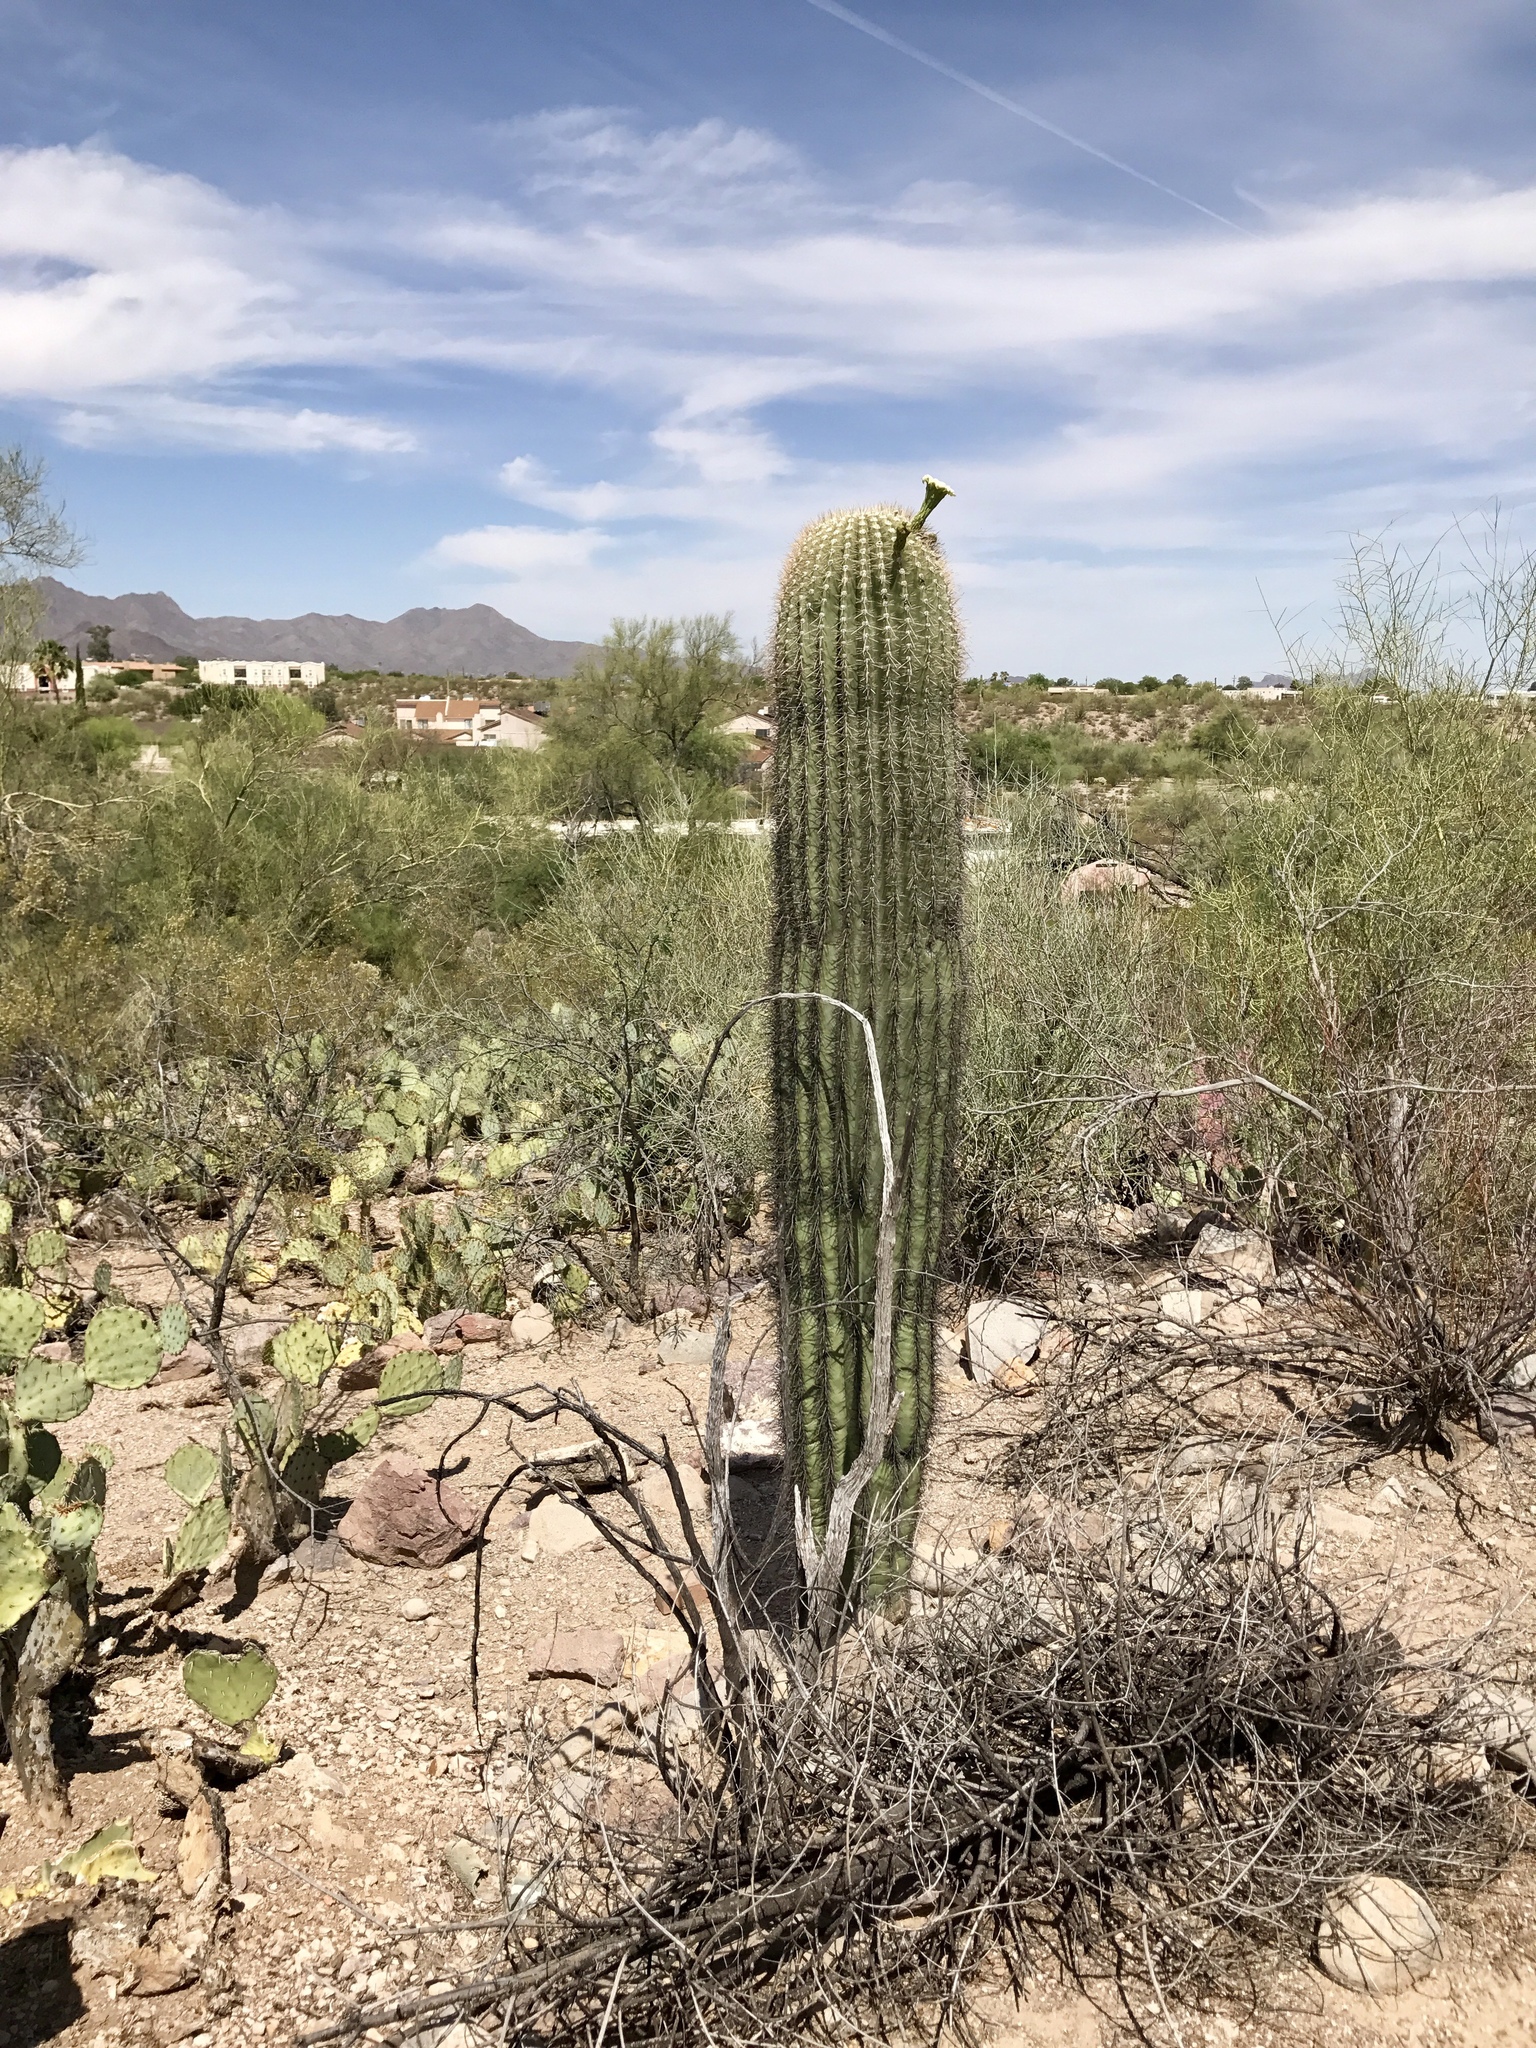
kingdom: Plantae
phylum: Tracheophyta
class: Magnoliopsida
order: Caryophyllales
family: Cactaceae
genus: Carnegiea
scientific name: Carnegiea gigantea
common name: Saguaro
